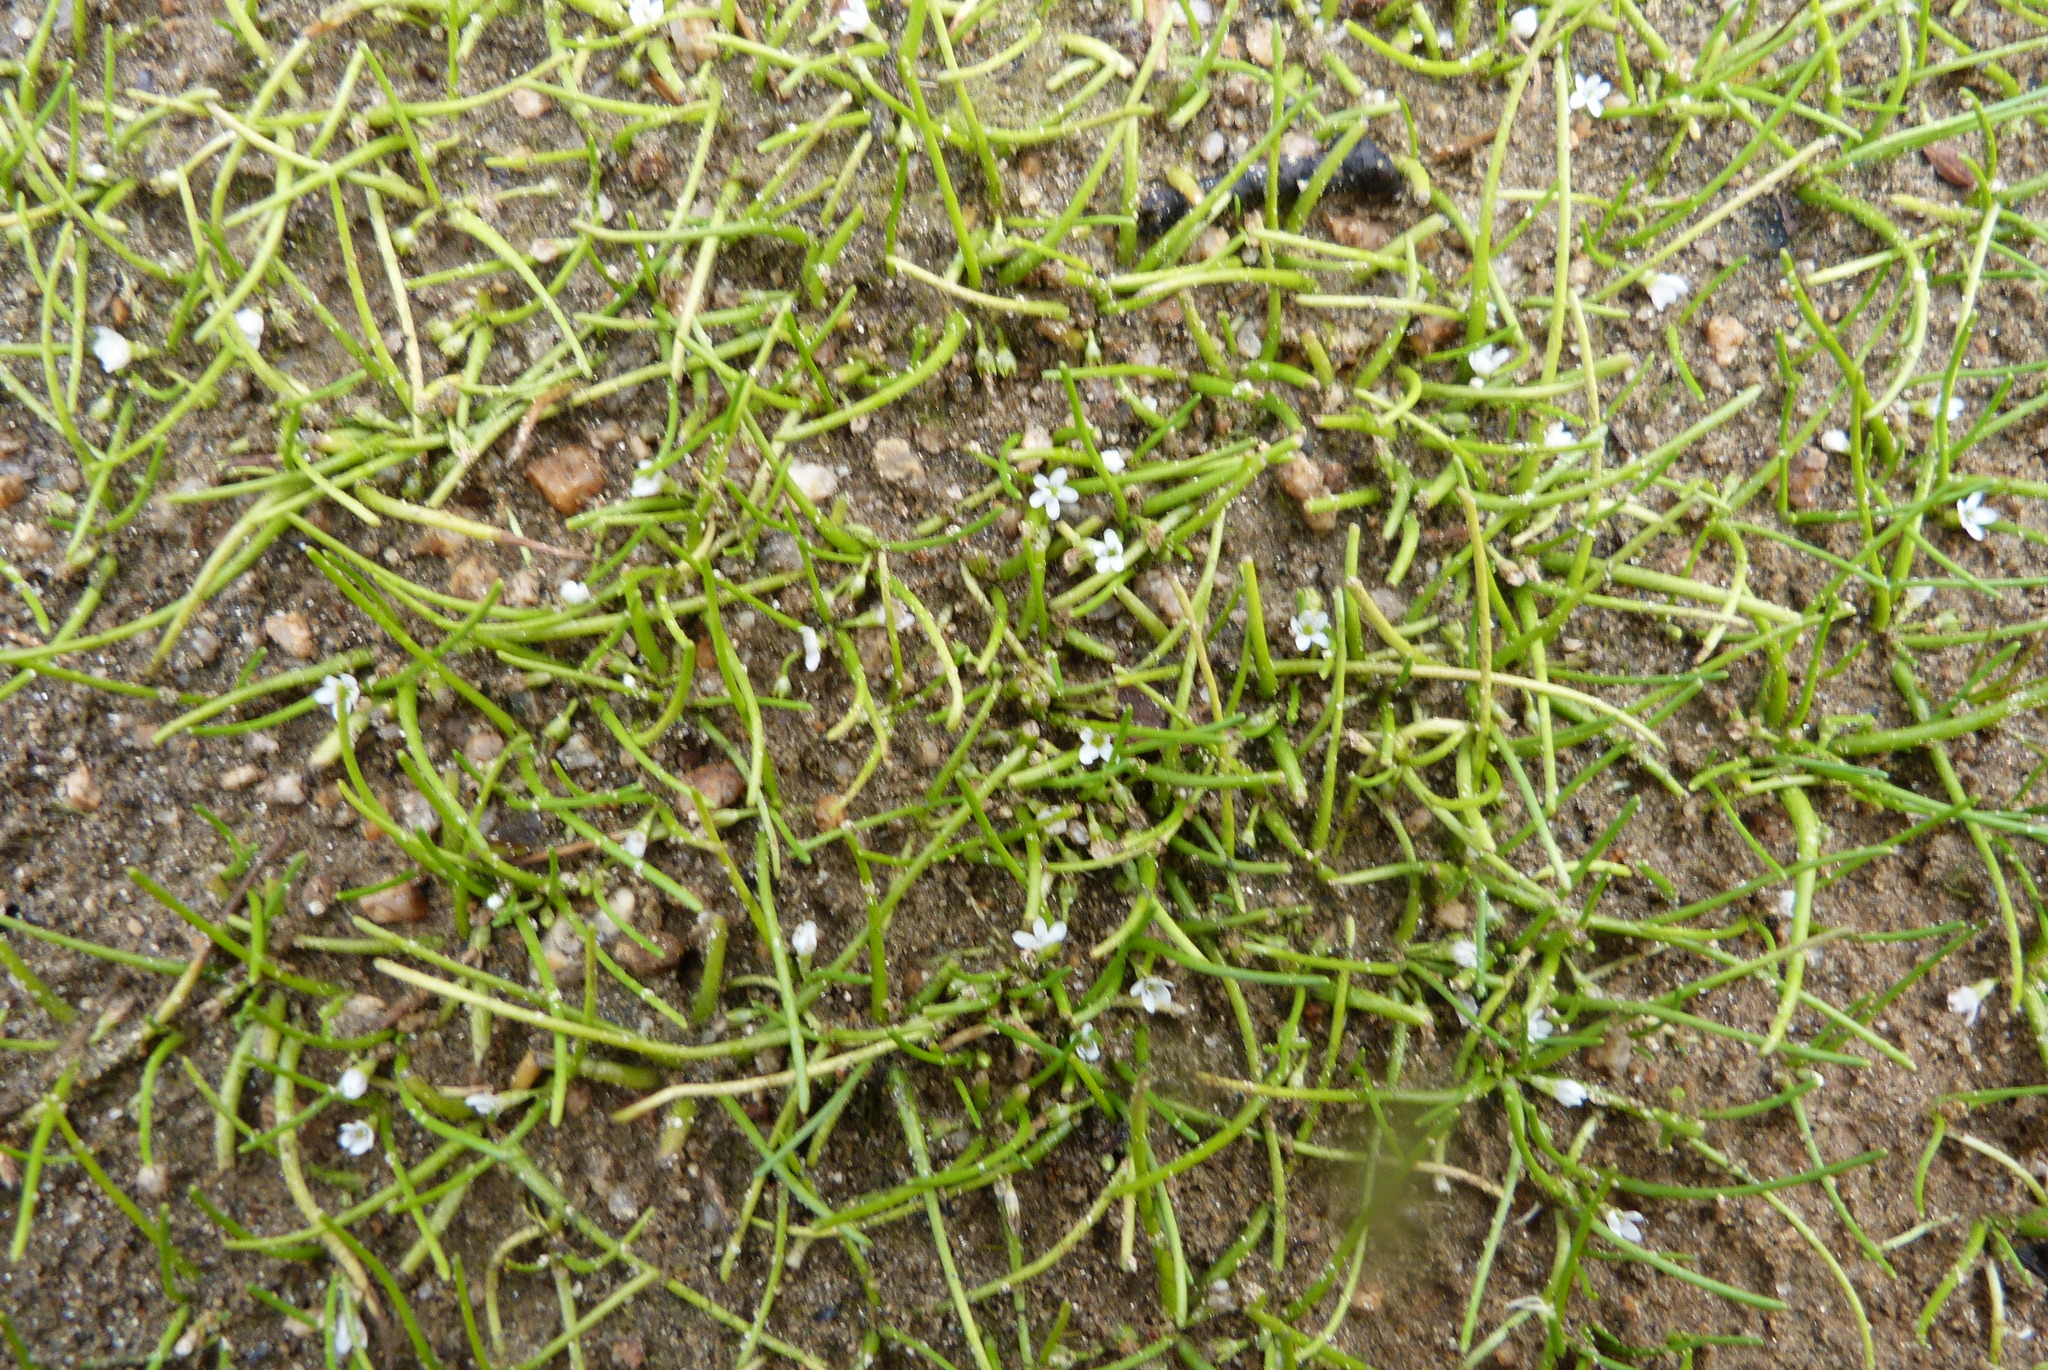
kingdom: Plantae
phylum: Tracheophyta
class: Magnoliopsida
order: Lamiales
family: Scrophulariaceae
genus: Limosella
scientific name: Limosella australis
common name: Welsh mudwort
